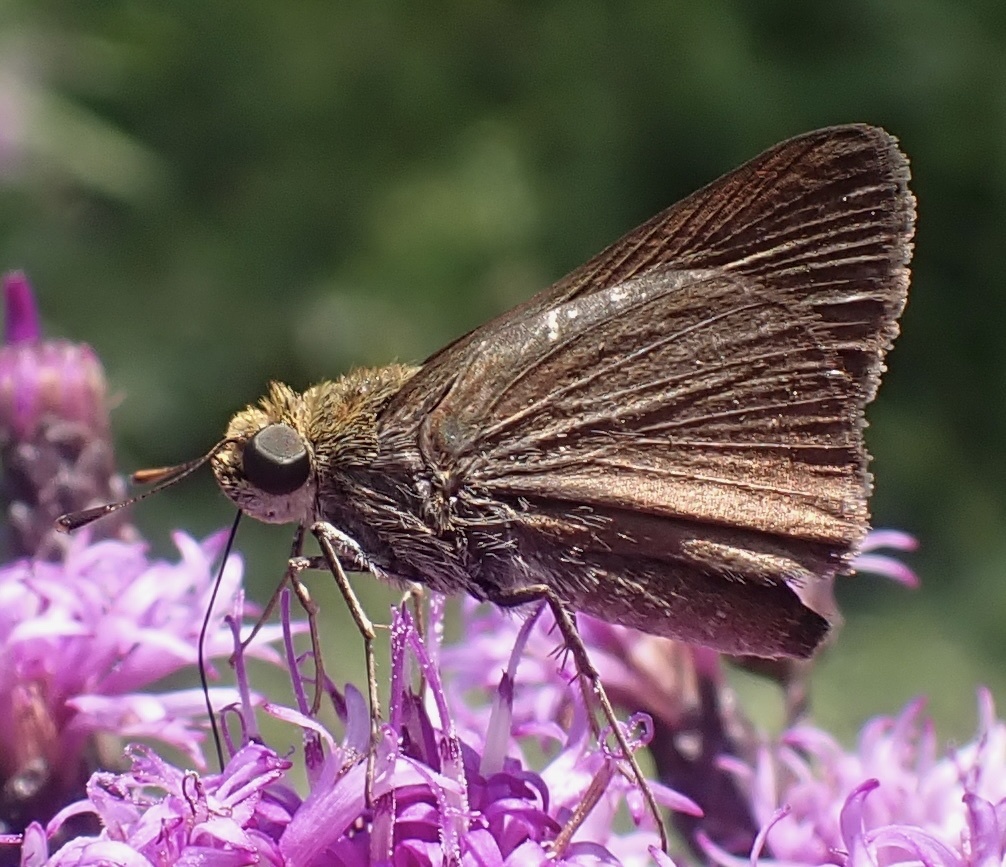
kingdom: Animalia
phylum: Arthropoda
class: Insecta
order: Lepidoptera
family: Hesperiidae
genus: Euphyes
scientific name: Euphyes vestris
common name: Dun skipper
